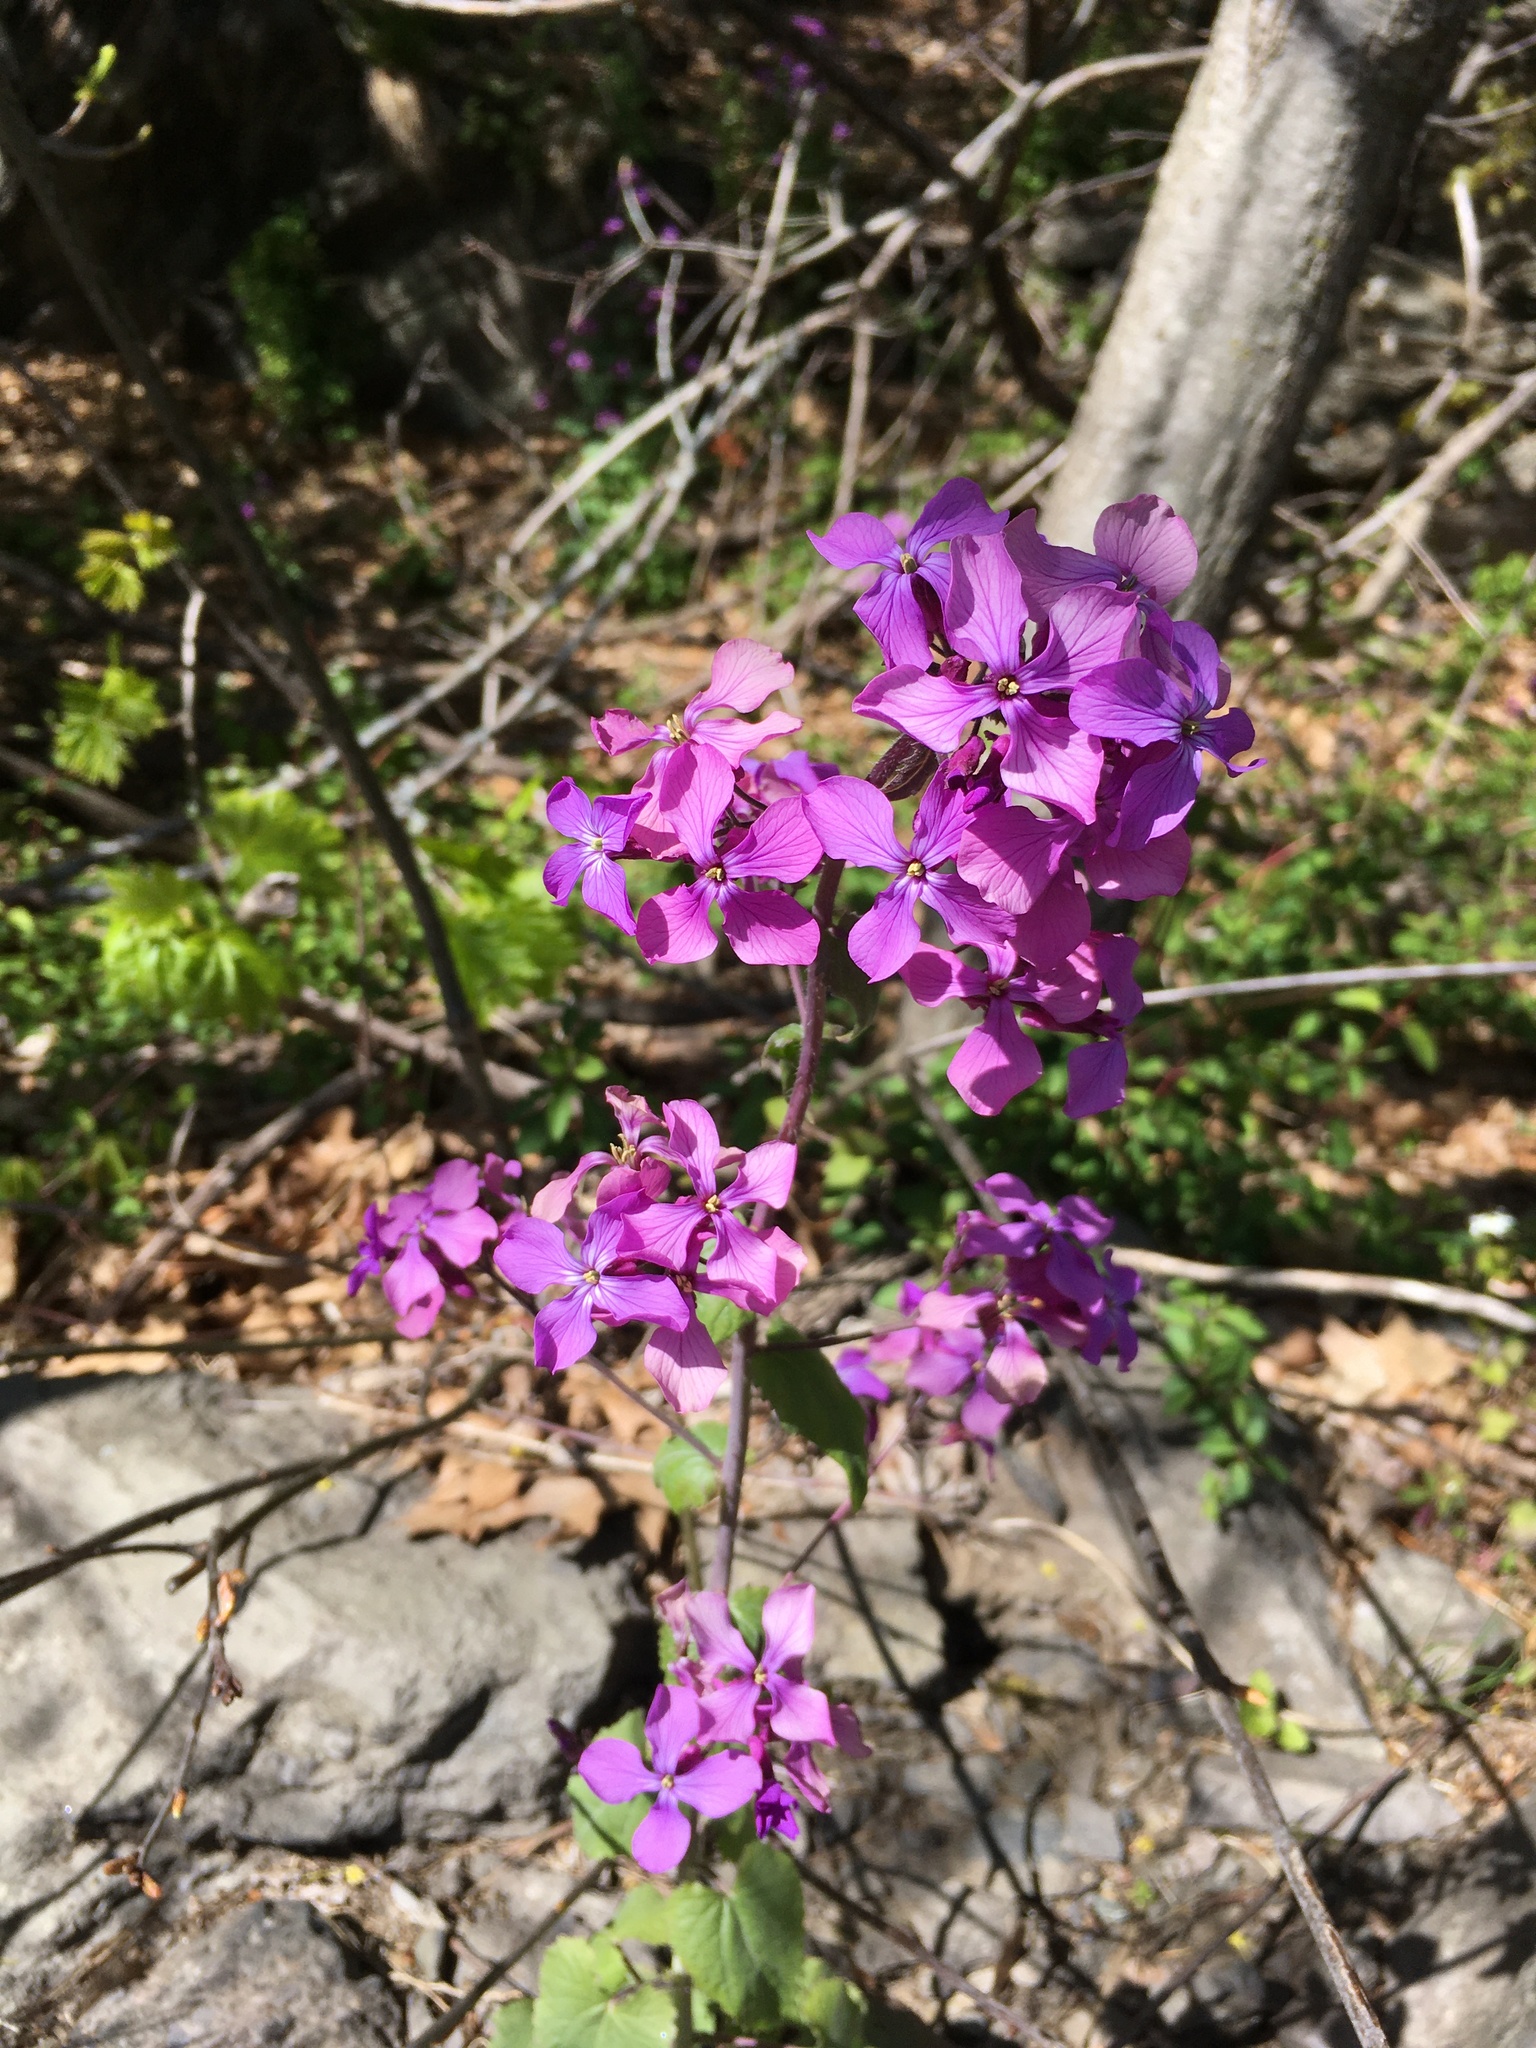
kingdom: Plantae
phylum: Tracheophyta
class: Magnoliopsida
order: Brassicales
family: Brassicaceae
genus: Lunaria
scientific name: Lunaria annua
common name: Honesty
